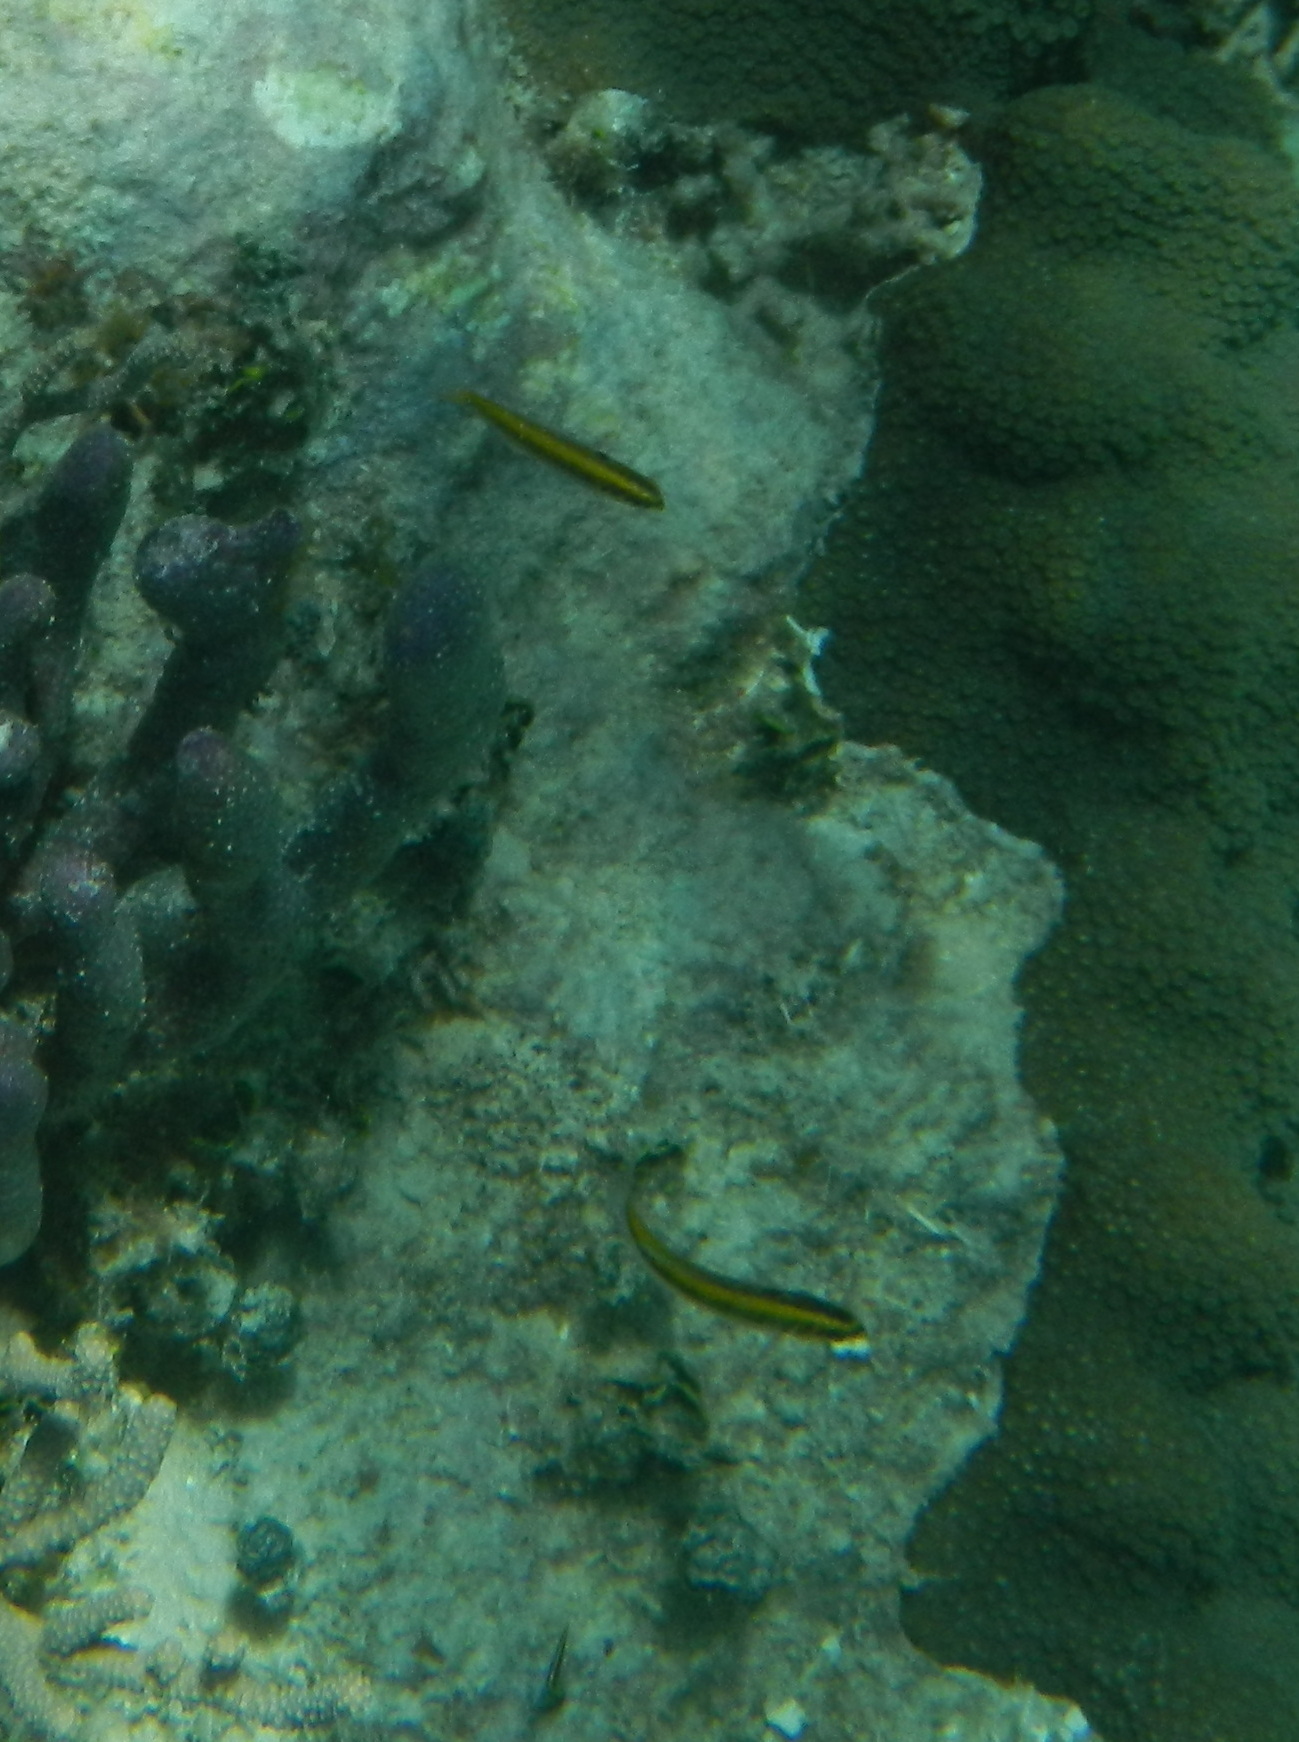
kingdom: Animalia
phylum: Chordata
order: Perciformes
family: Labridae
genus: Thalassoma
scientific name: Thalassoma bifasciatum
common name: Bluehead wrasse
